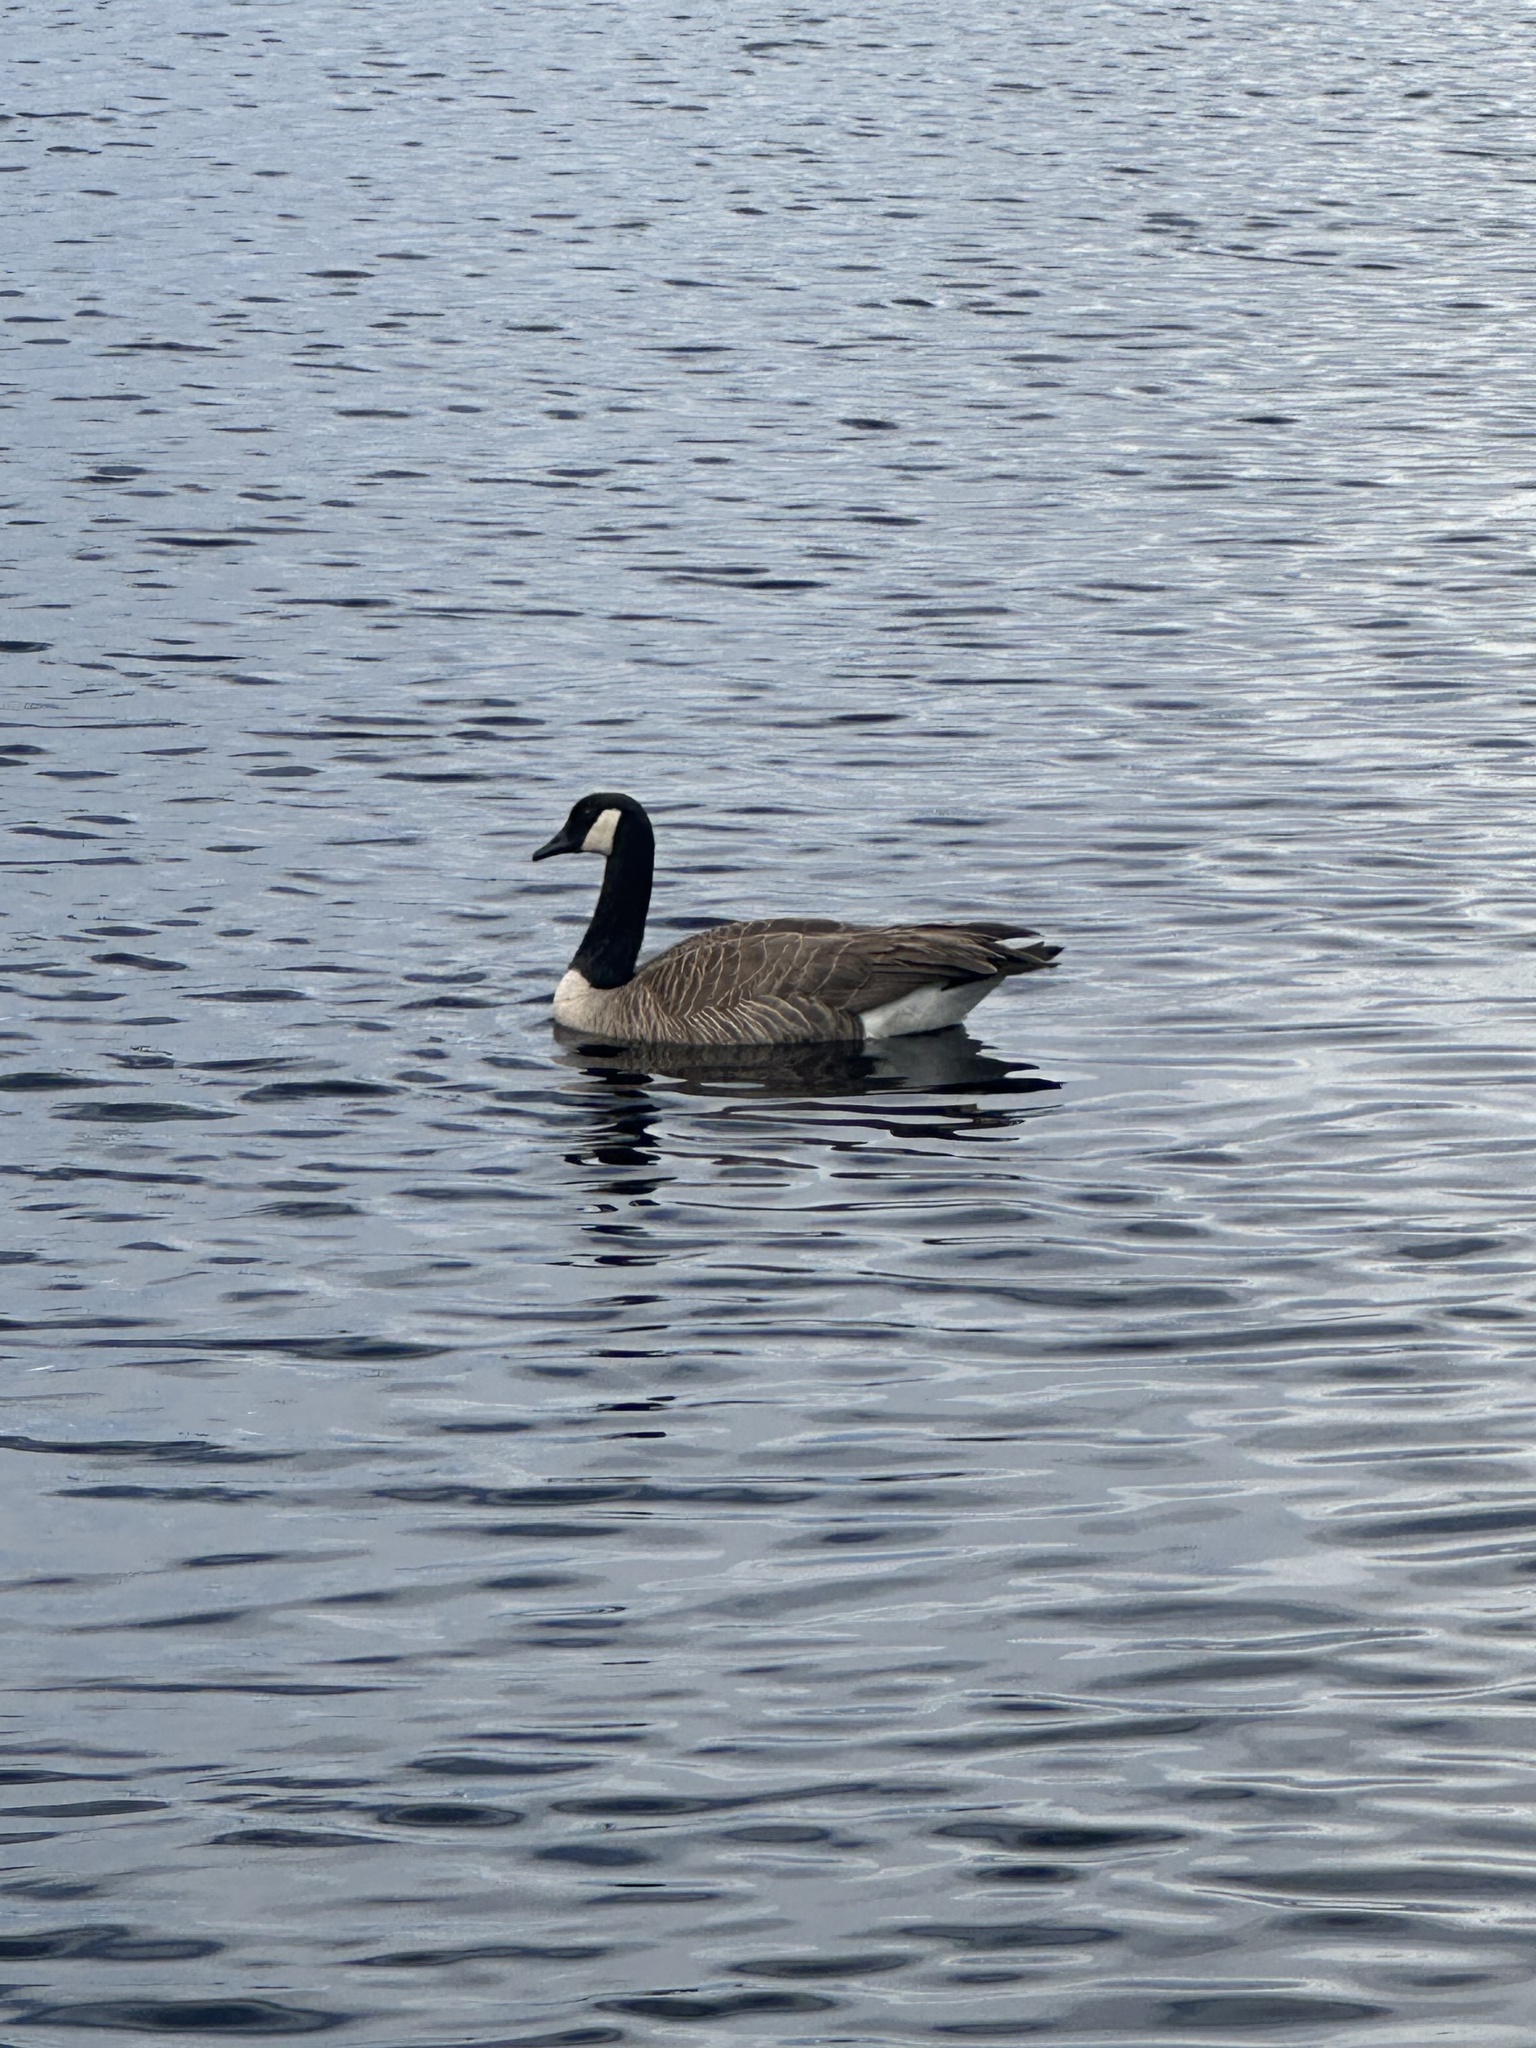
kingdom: Animalia
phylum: Chordata
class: Aves
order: Anseriformes
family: Anatidae
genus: Branta
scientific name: Branta canadensis
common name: Canada goose
